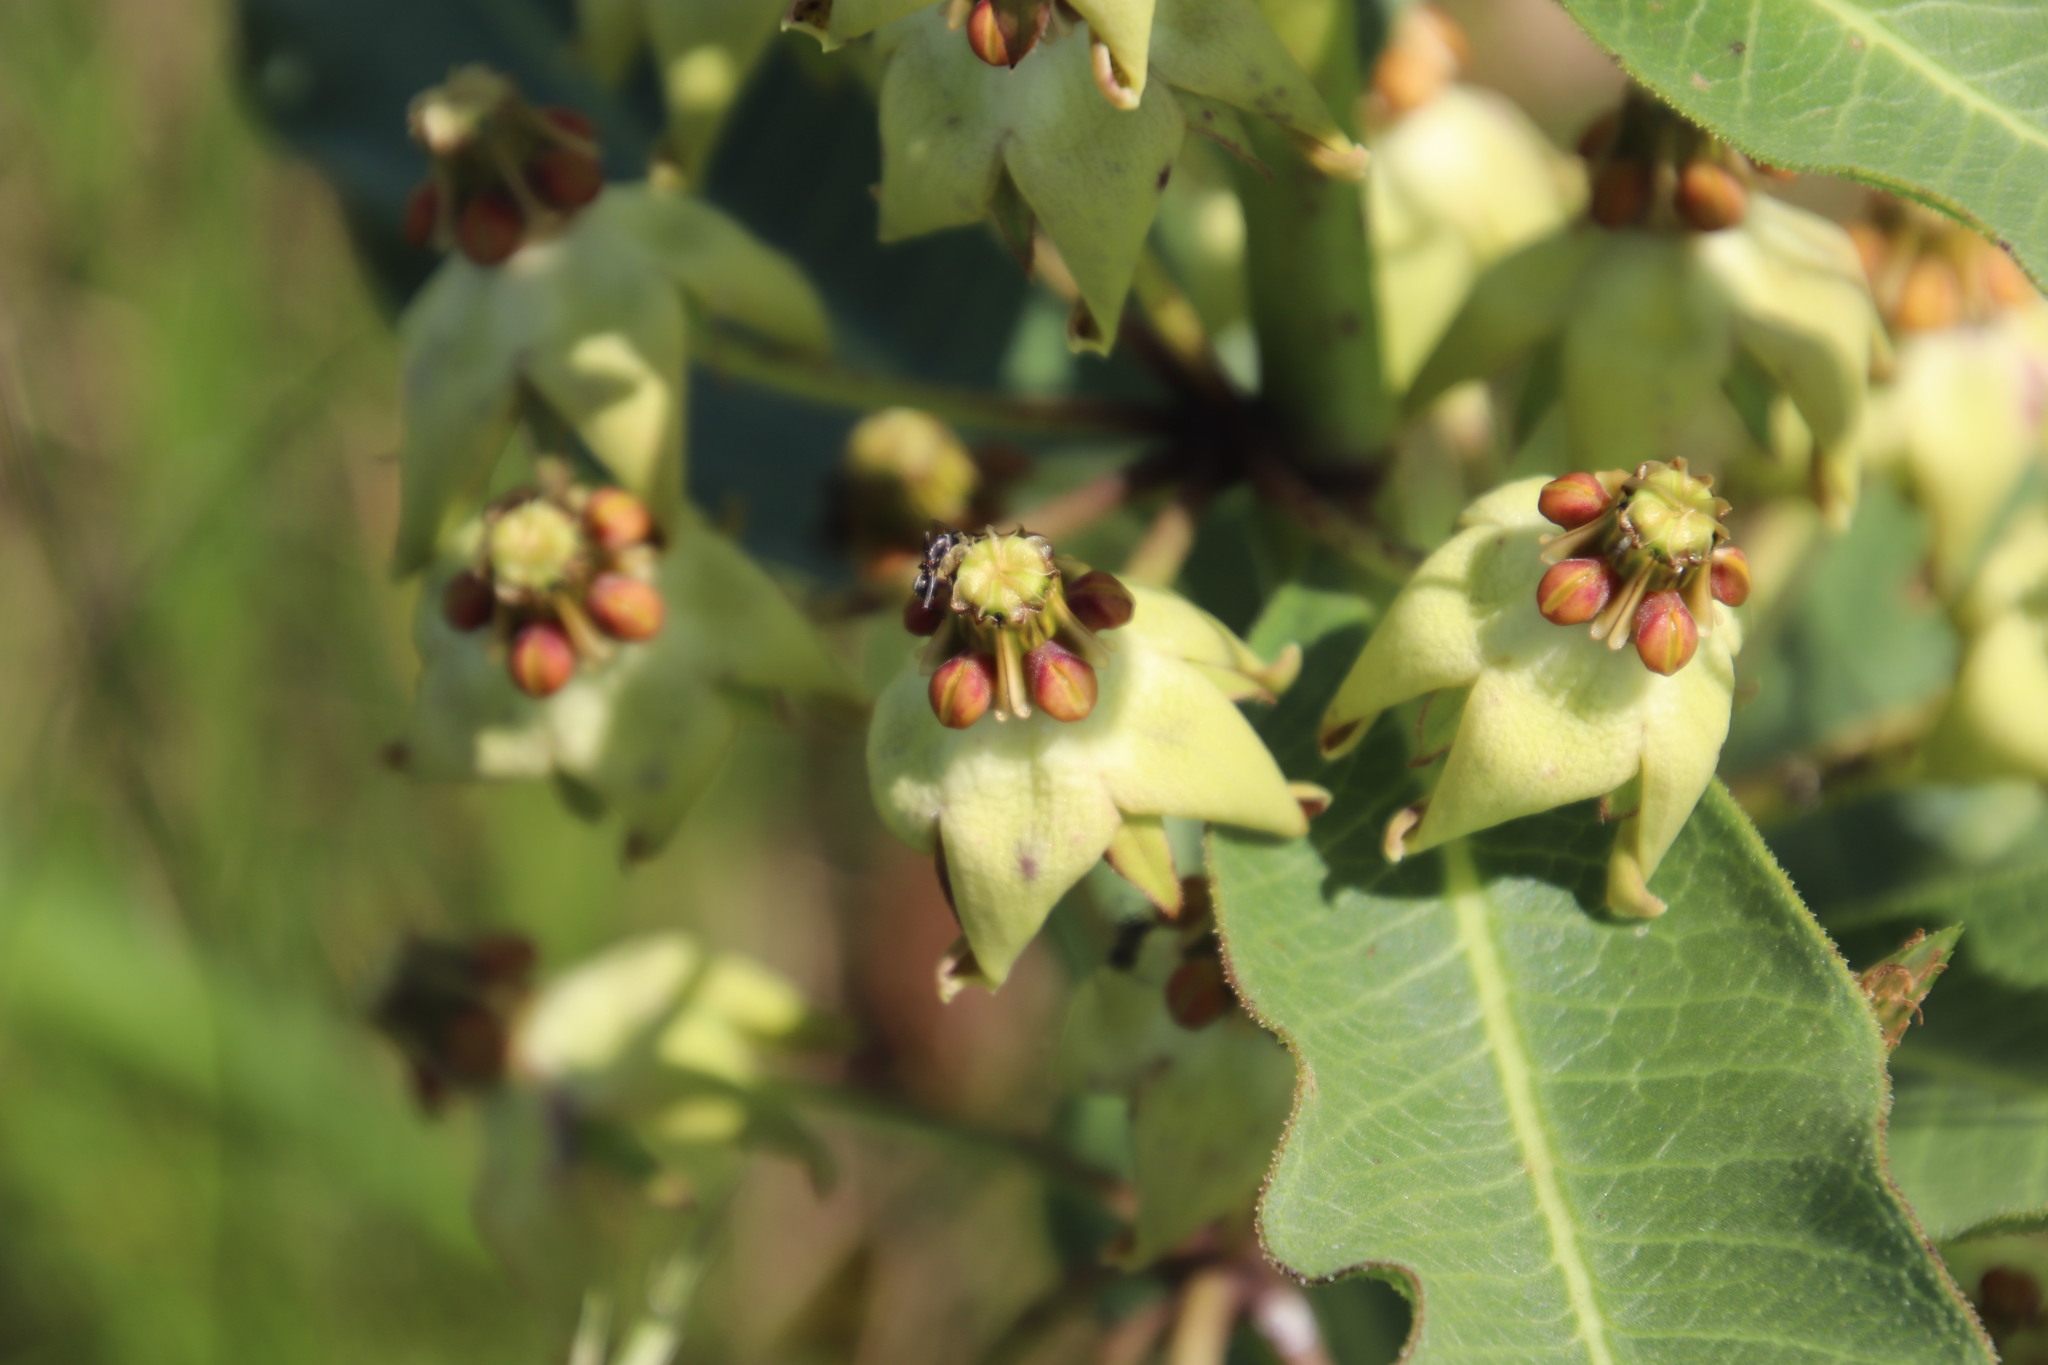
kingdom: Plantae
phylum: Tracheophyta
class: Magnoliopsida
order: Gentianales
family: Apocynaceae
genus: Pachycarpus
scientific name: Pachycarpus asperifolius
